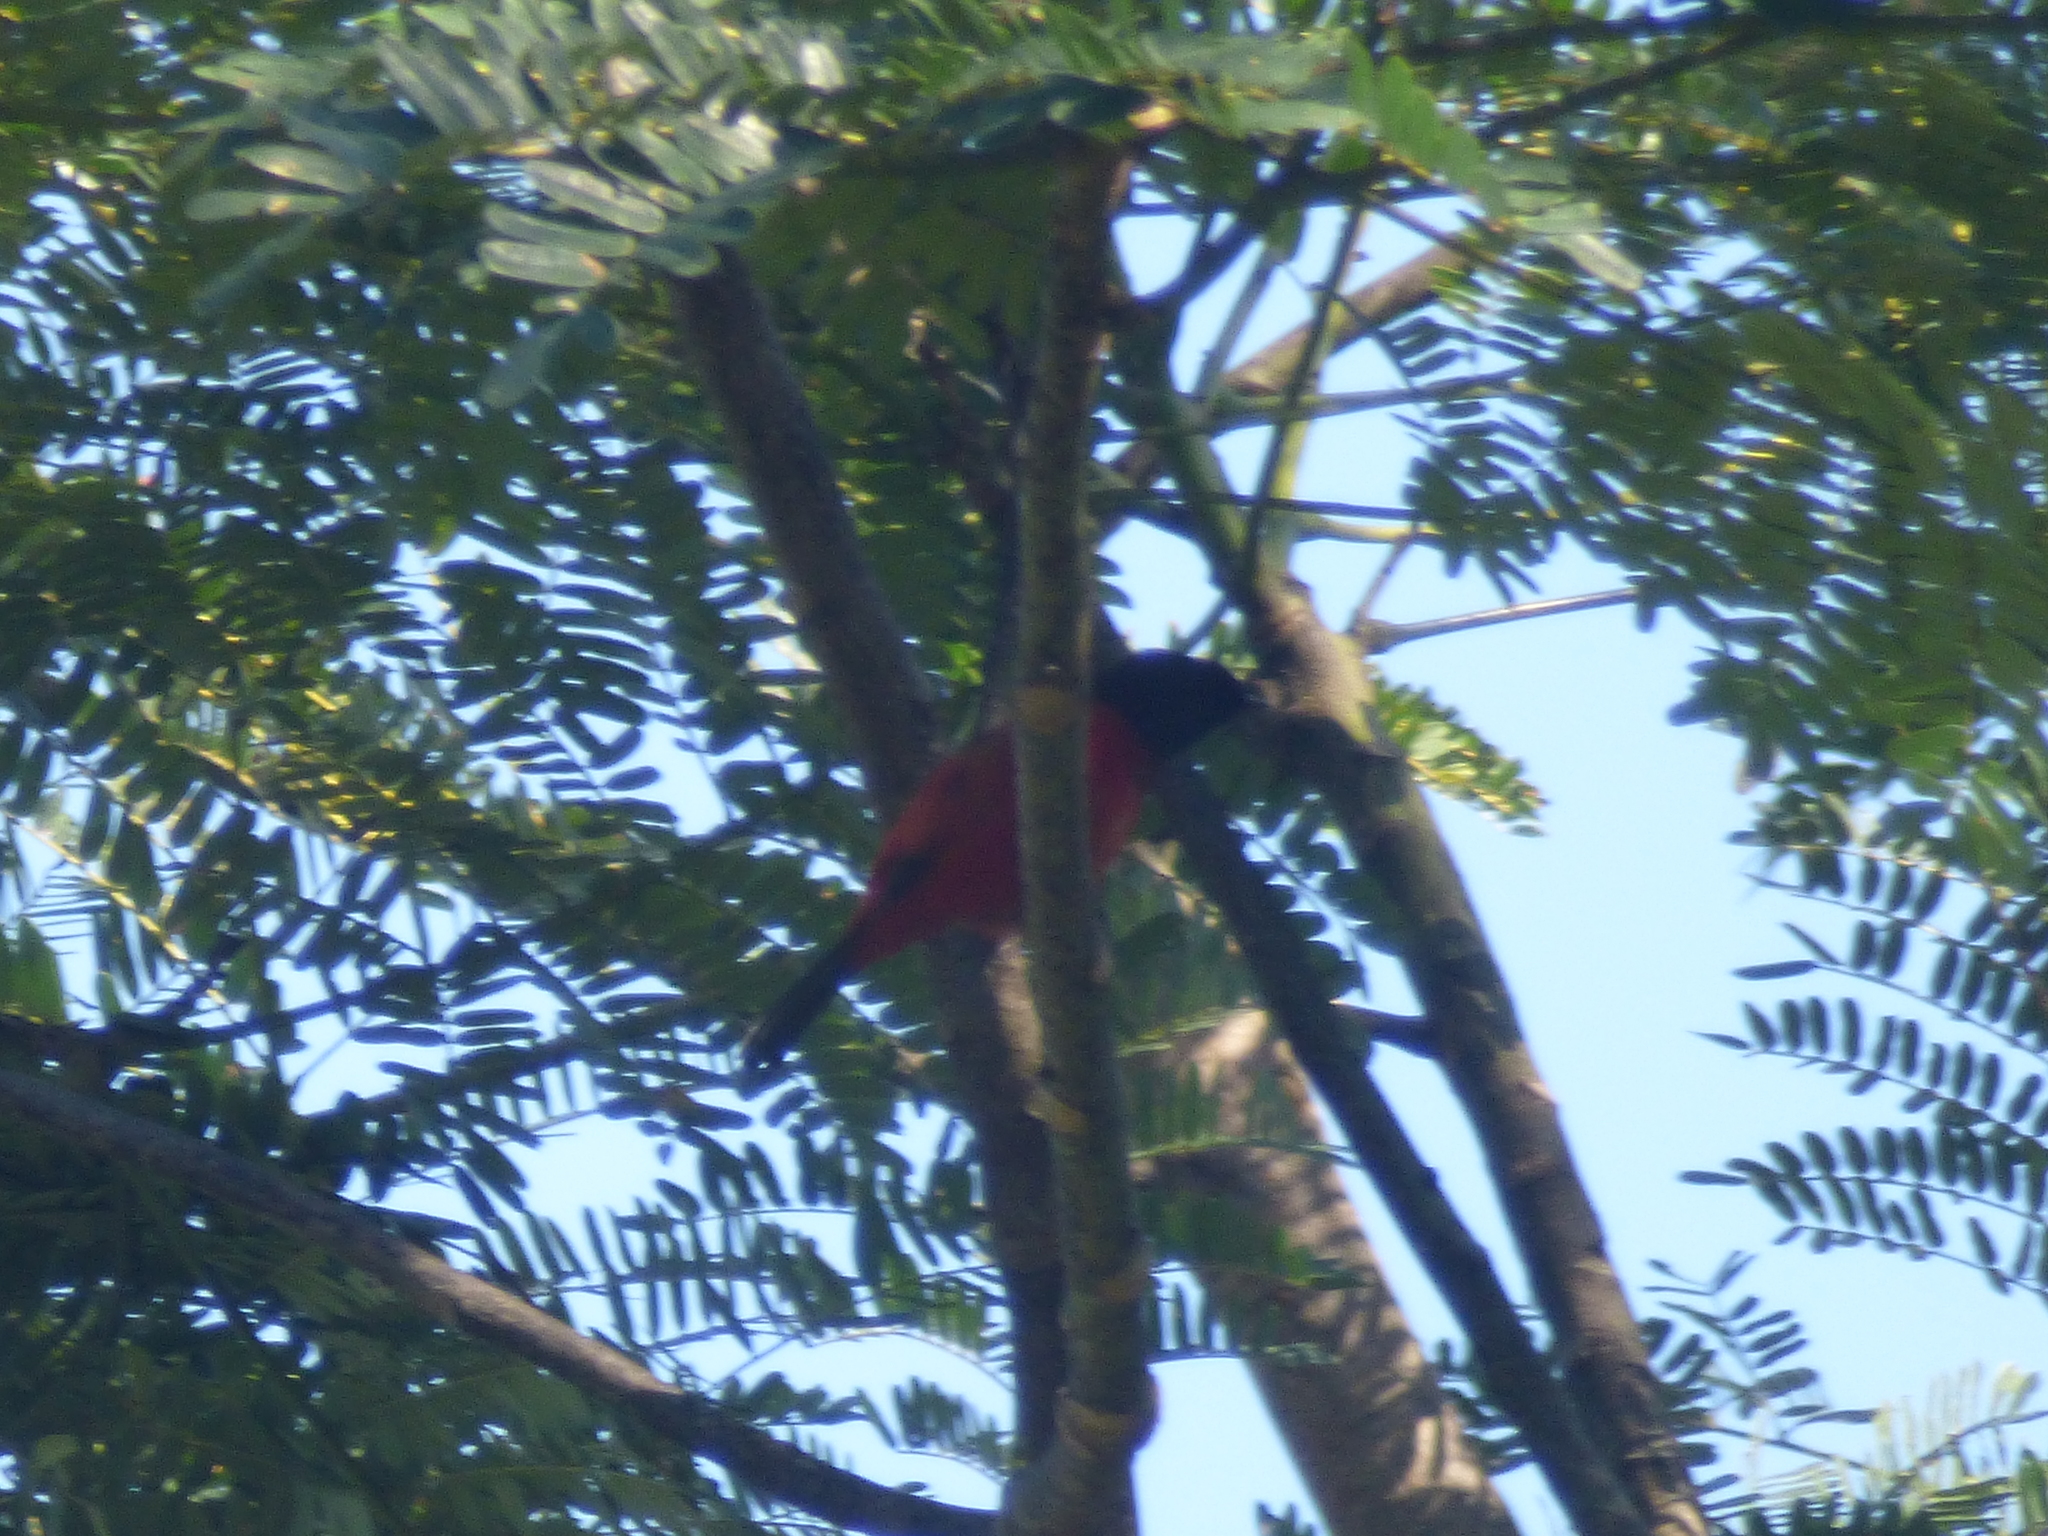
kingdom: Animalia
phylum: Chordata
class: Aves
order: Passeriformes
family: Icteridae
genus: Icterus
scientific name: Icterus spurius
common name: Orchard oriole
